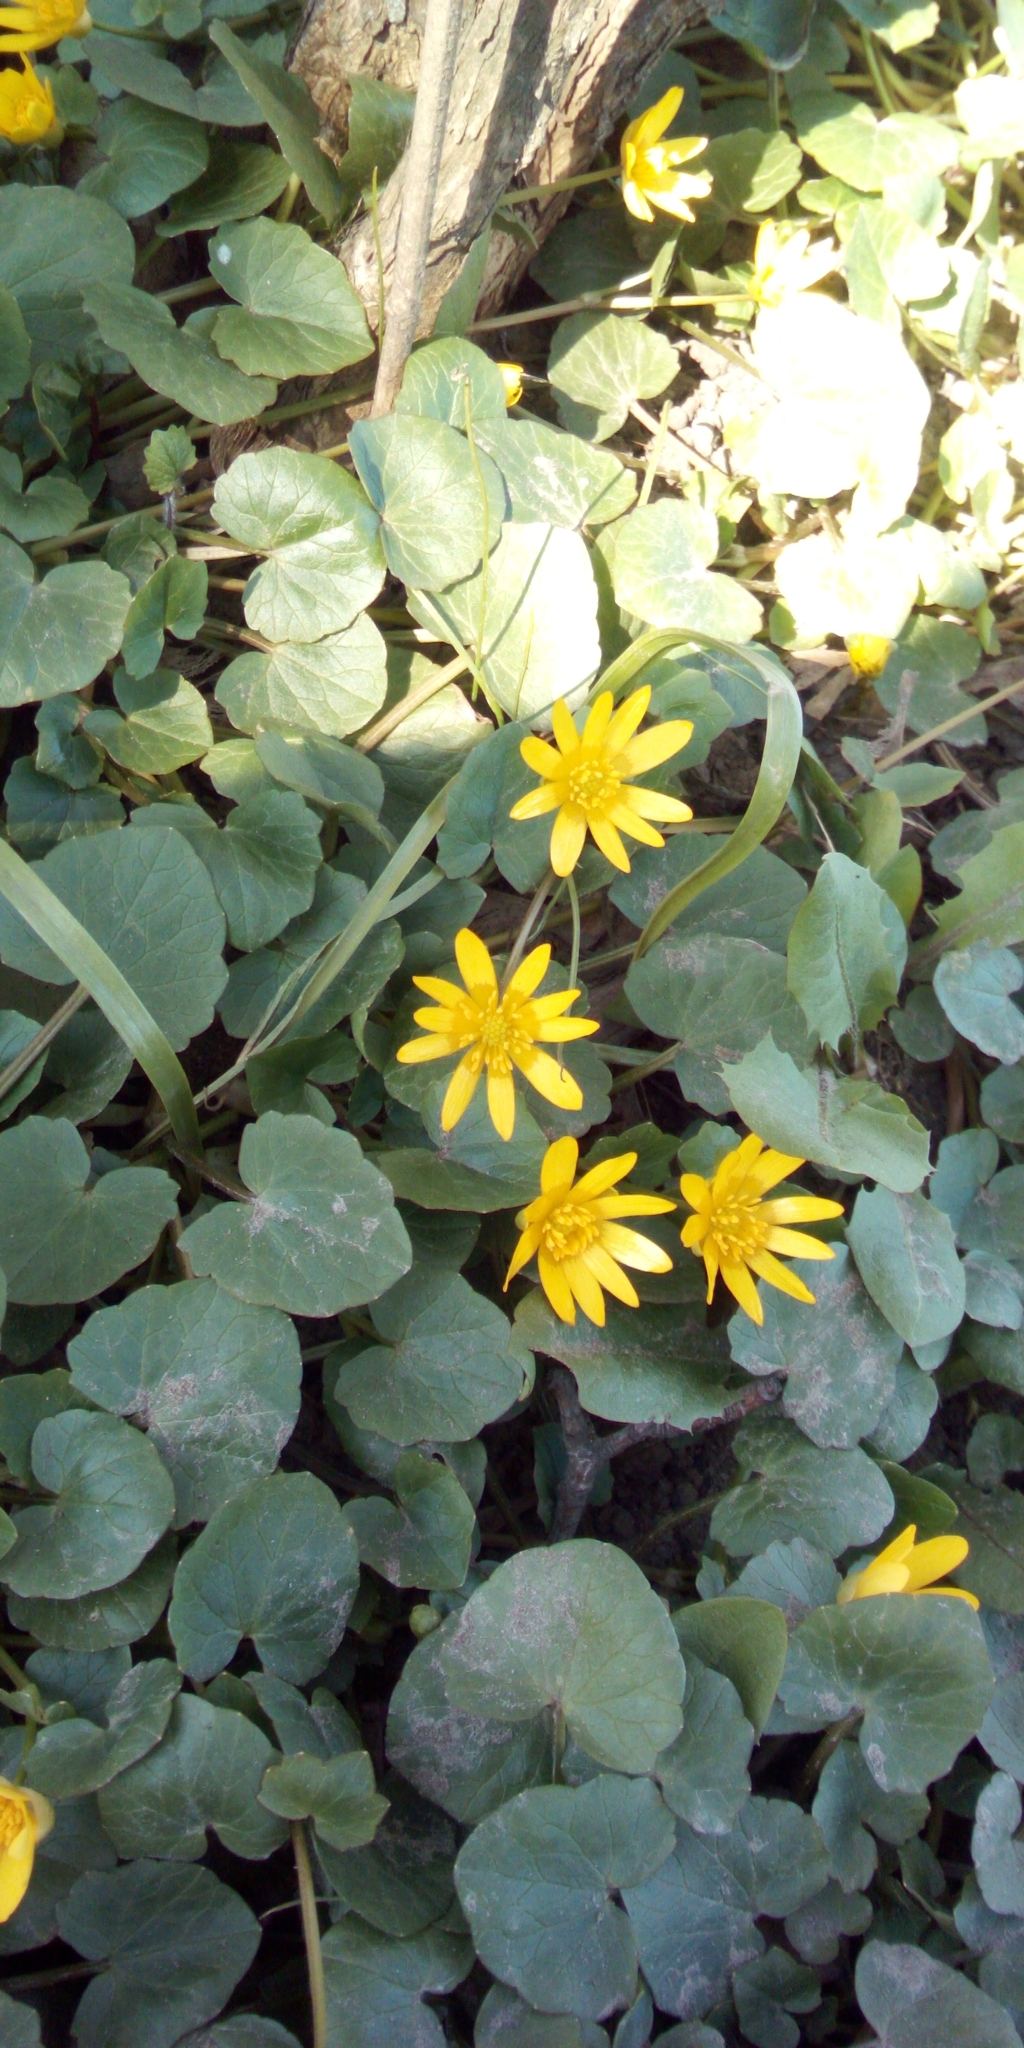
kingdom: Plantae
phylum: Tracheophyta
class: Magnoliopsida
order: Ranunculales
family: Ranunculaceae
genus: Ficaria
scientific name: Ficaria verna
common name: Lesser celandine
